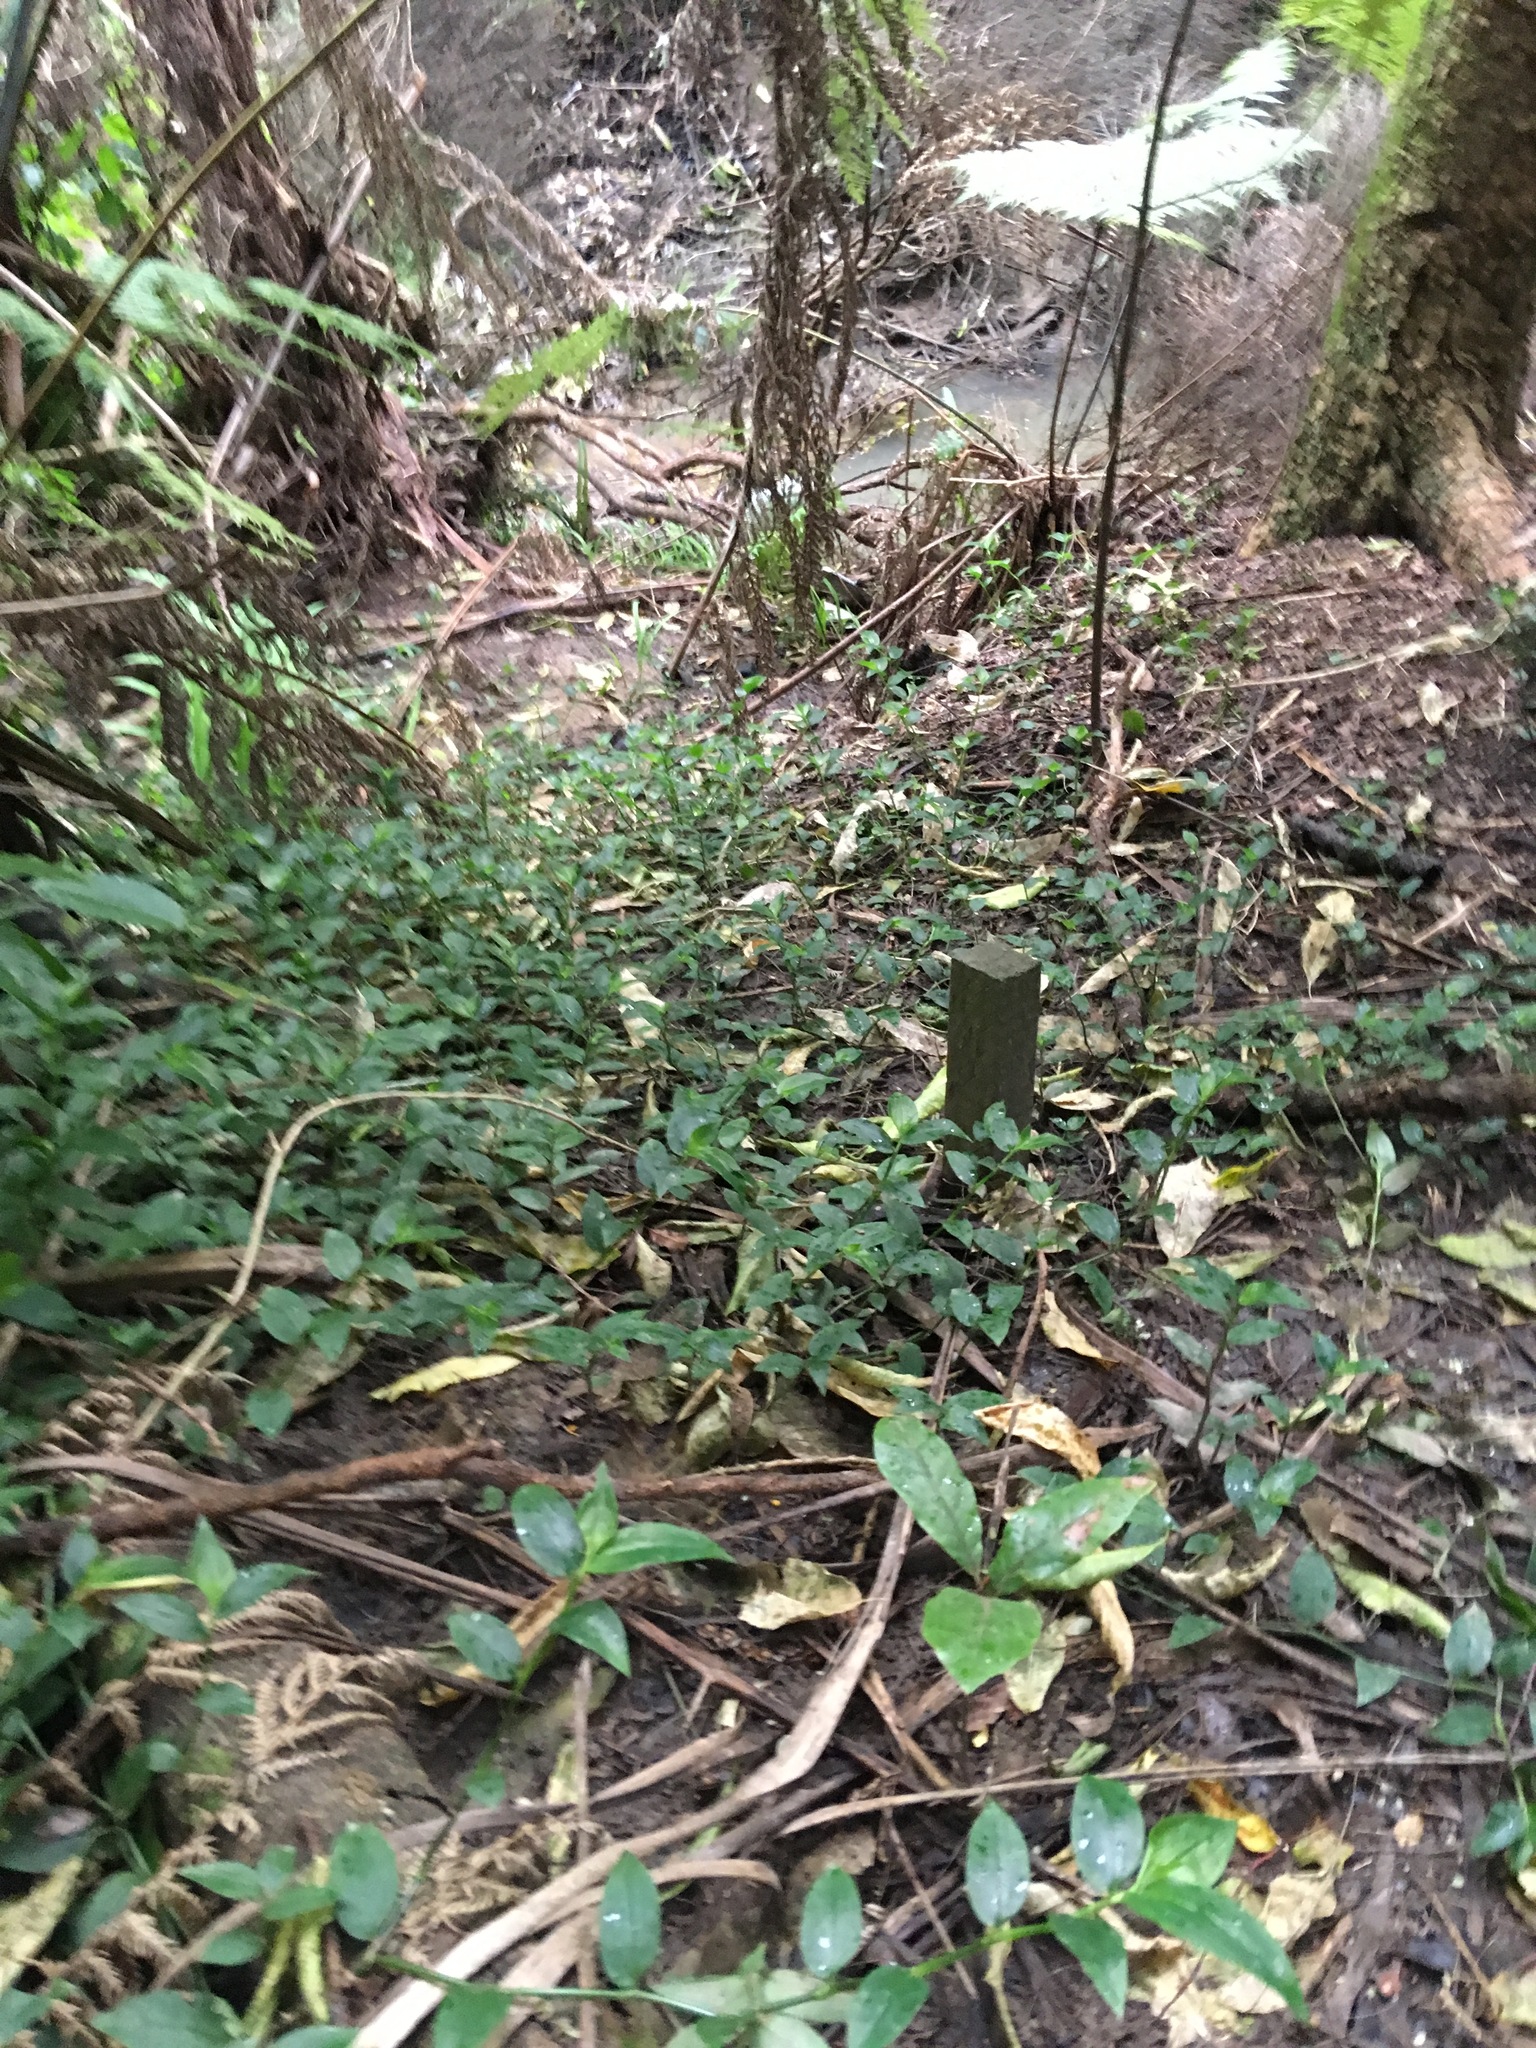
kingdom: Plantae
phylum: Tracheophyta
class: Magnoliopsida
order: Laurales
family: Lauraceae
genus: Beilschmiedia
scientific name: Beilschmiedia tarairi
